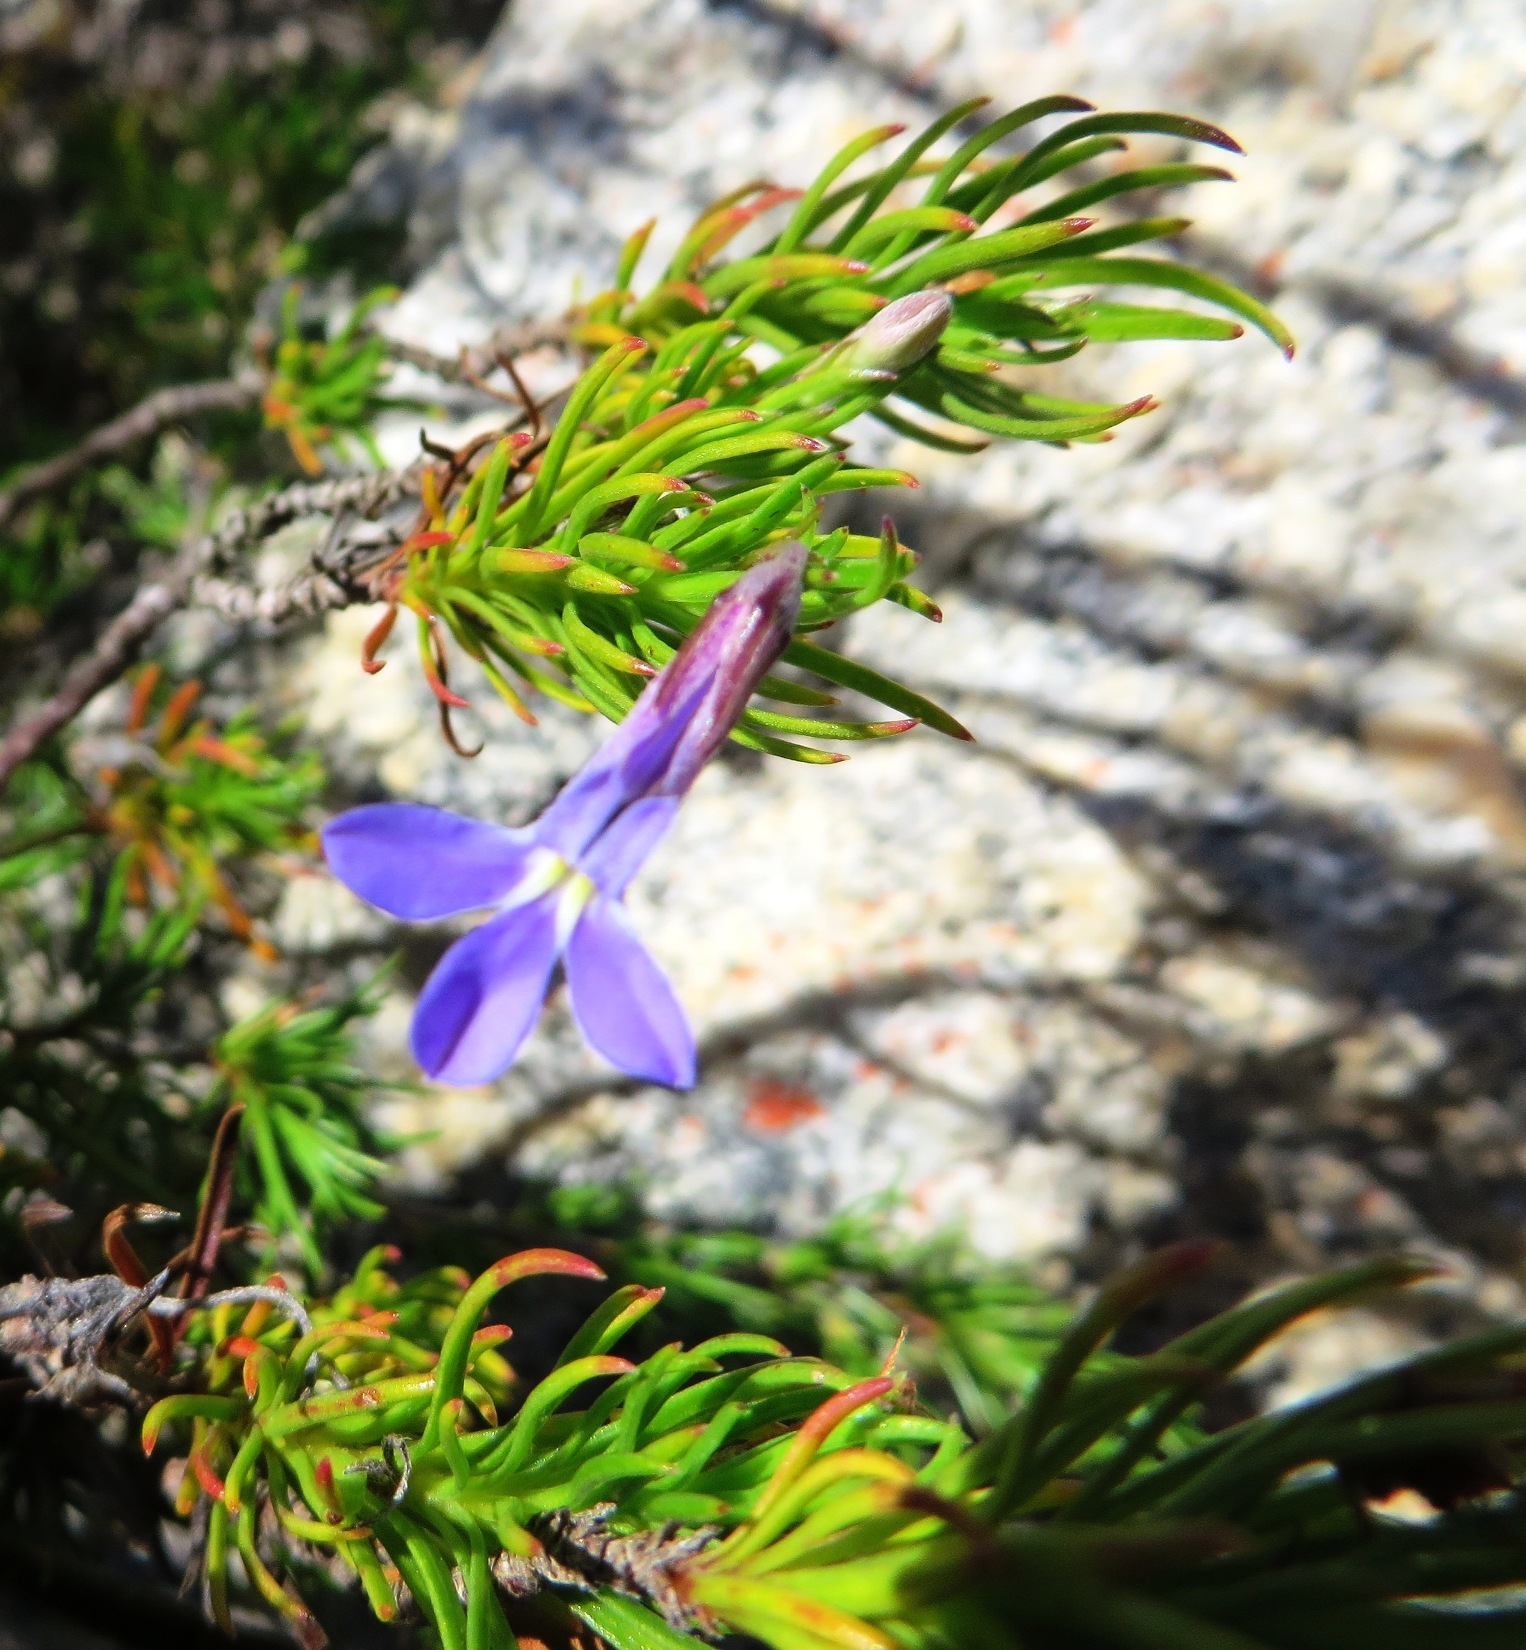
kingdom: Plantae
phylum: Tracheophyta
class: Magnoliopsida
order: Asterales
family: Campanulaceae
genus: Lobelia
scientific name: Lobelia pinifolia
